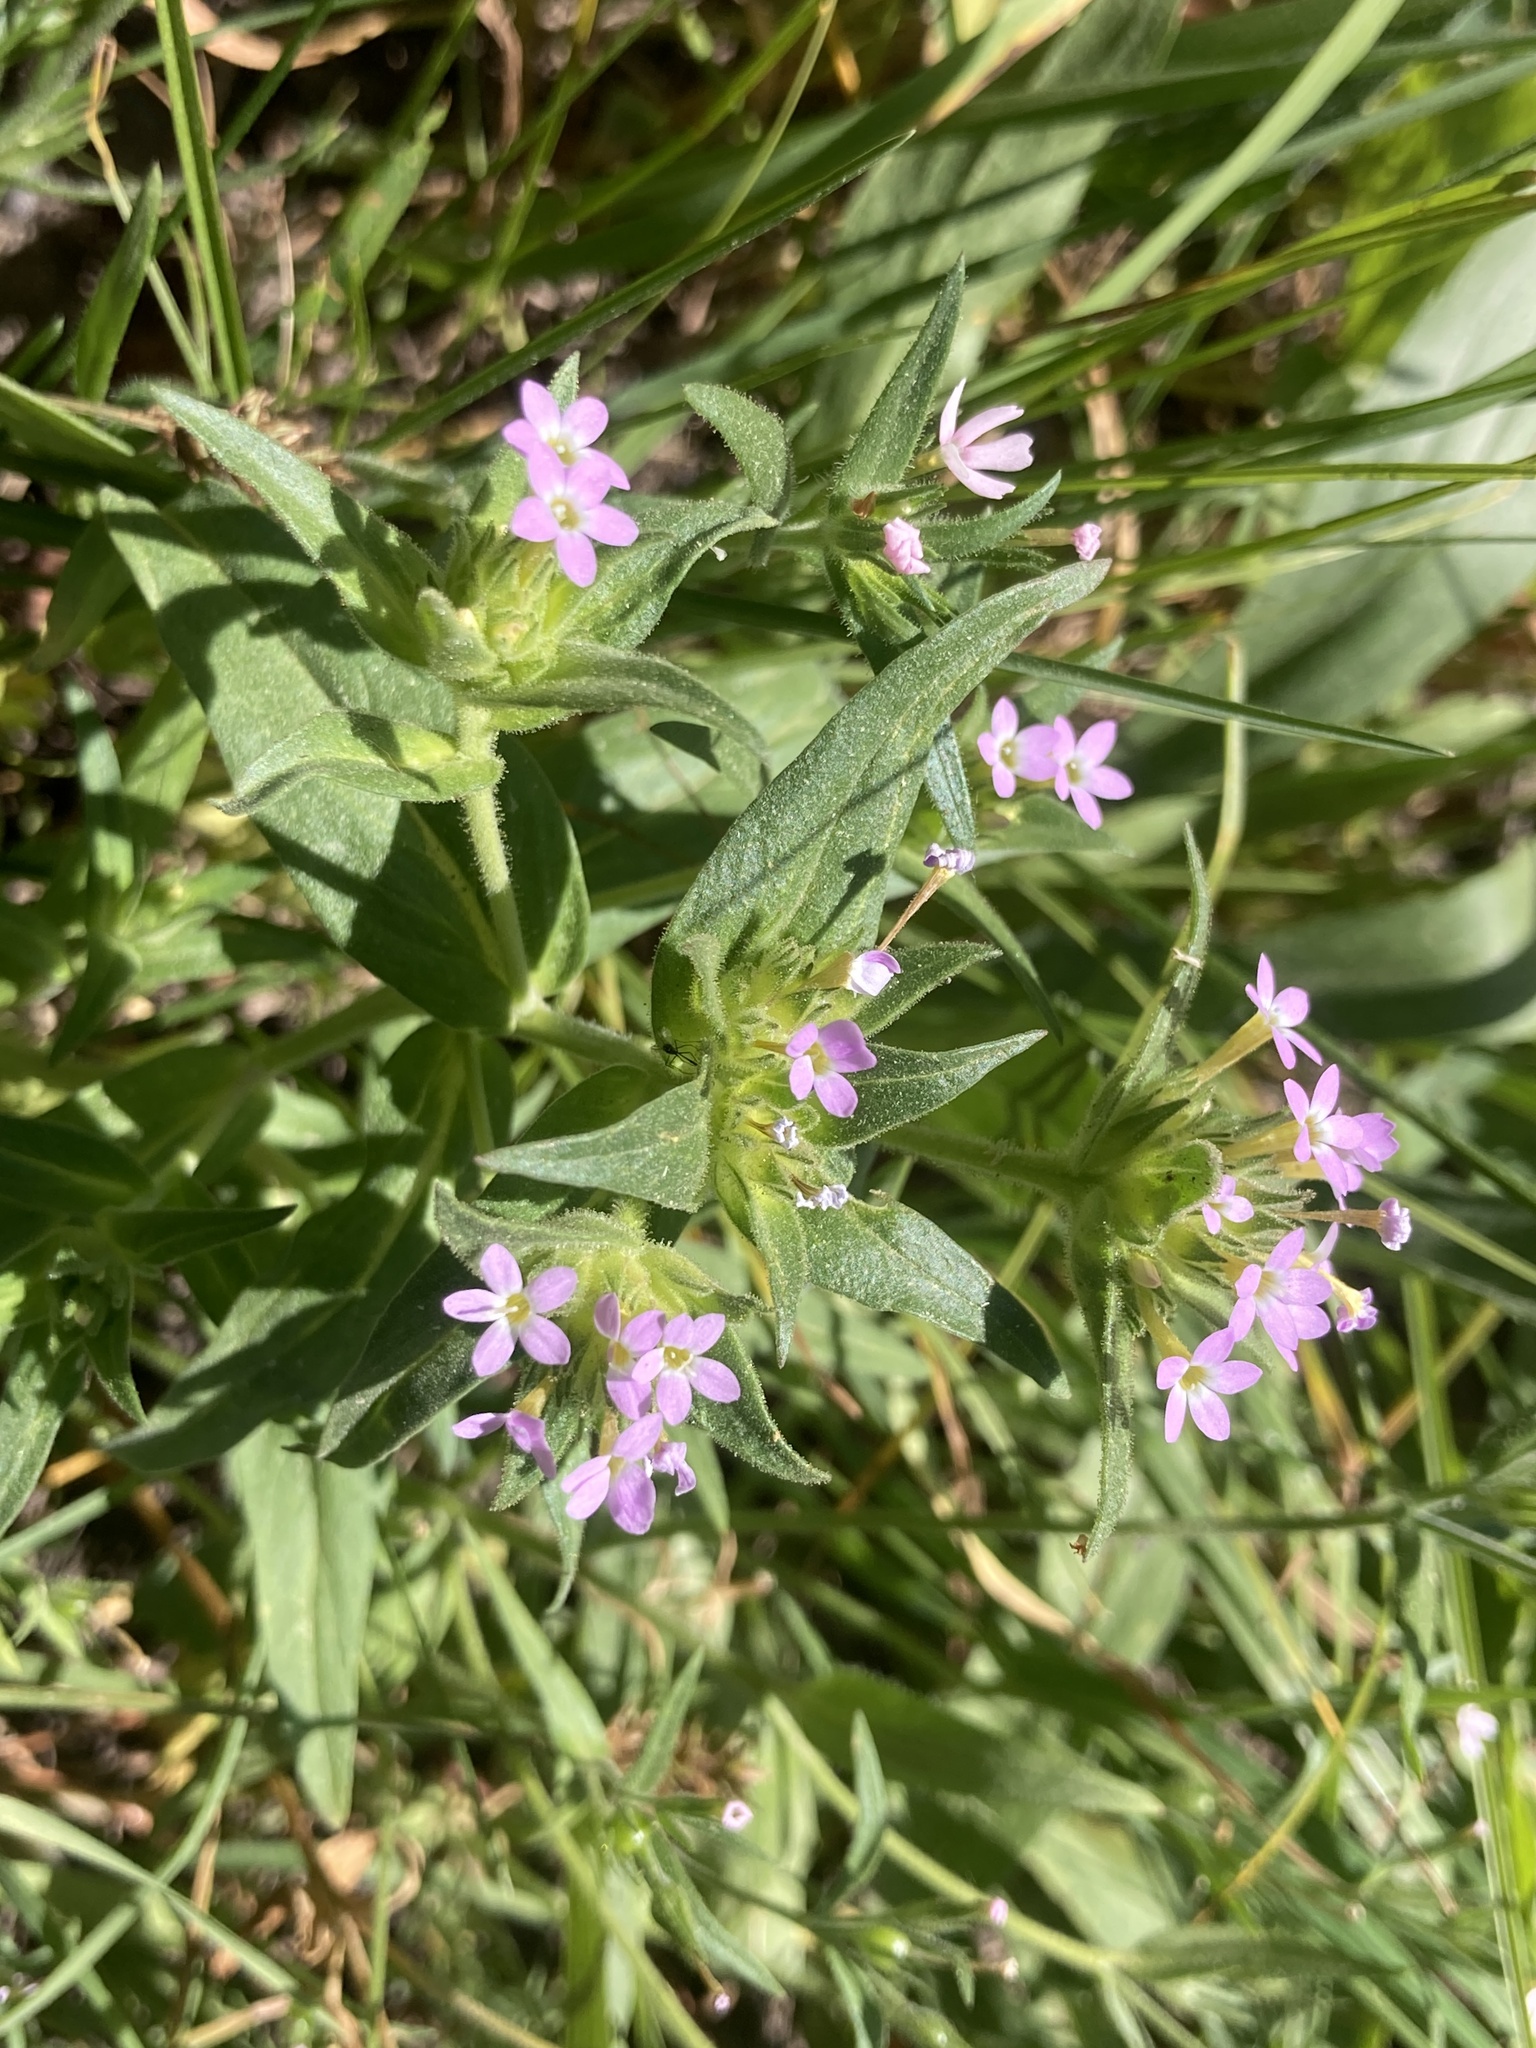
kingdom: Plantae
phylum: Tracheophyta
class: Magnoliopsida
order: Ericales
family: Polemoniaceae
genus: Collomia
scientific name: Collomia linearis
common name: Tiny trumpet
